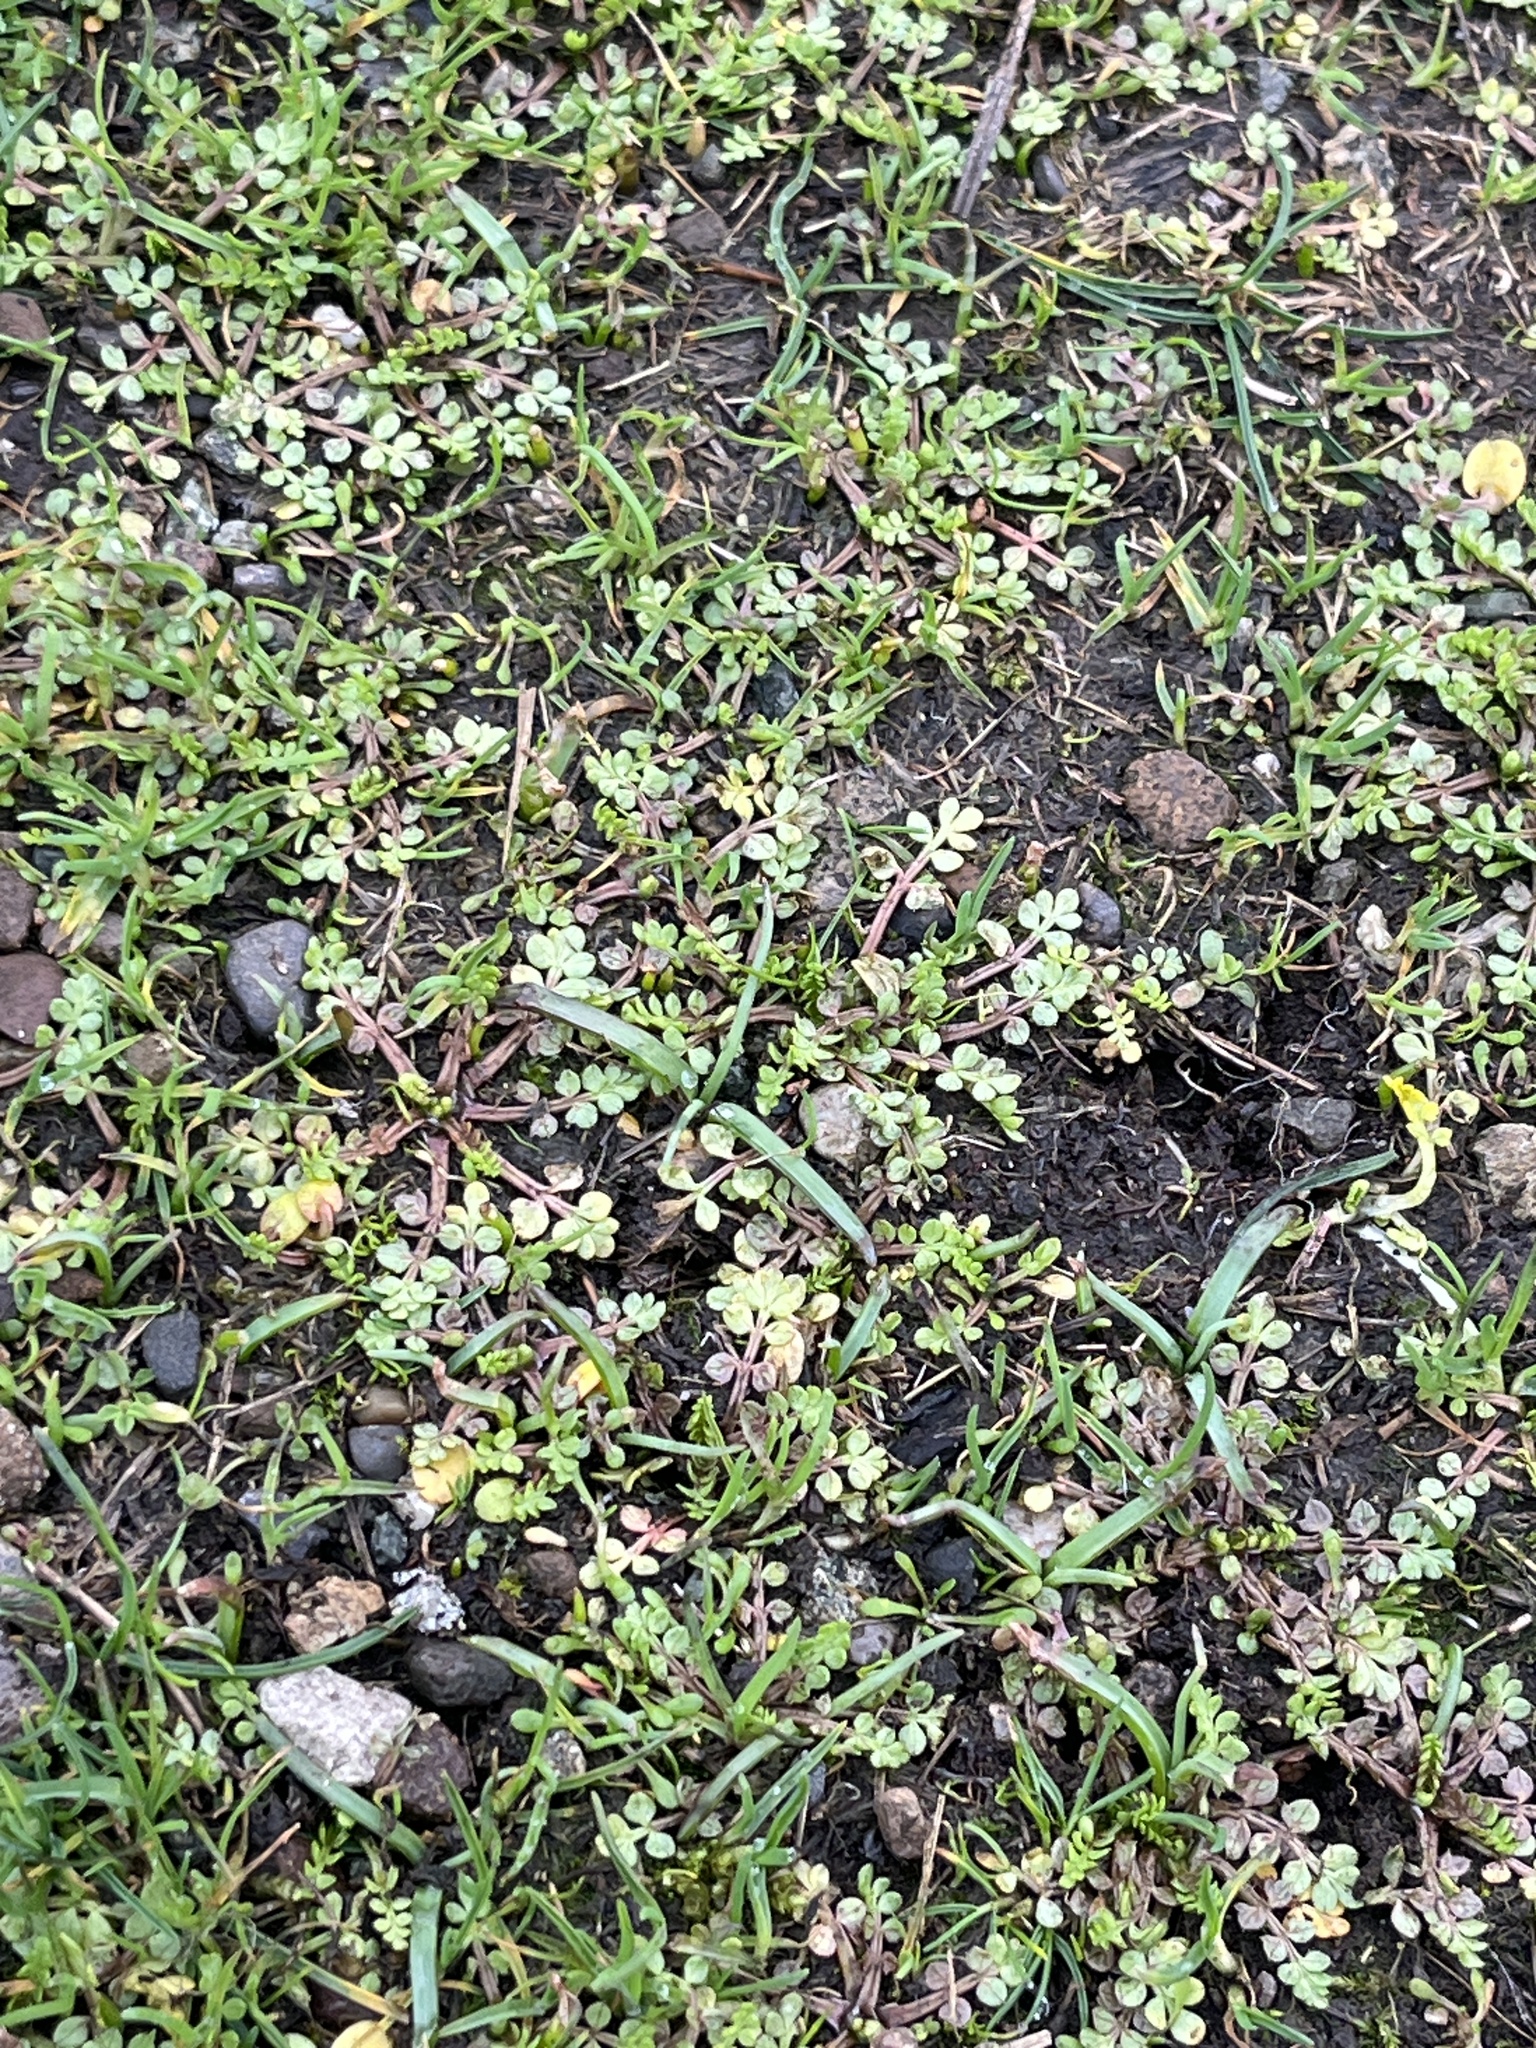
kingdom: Plantae
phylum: Tracheophyta
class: Magnoliopsida
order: Brassicales
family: Limnanthaceae
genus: Limnanthes
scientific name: Limnanthes macounii
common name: Macoun's meadowfoam
